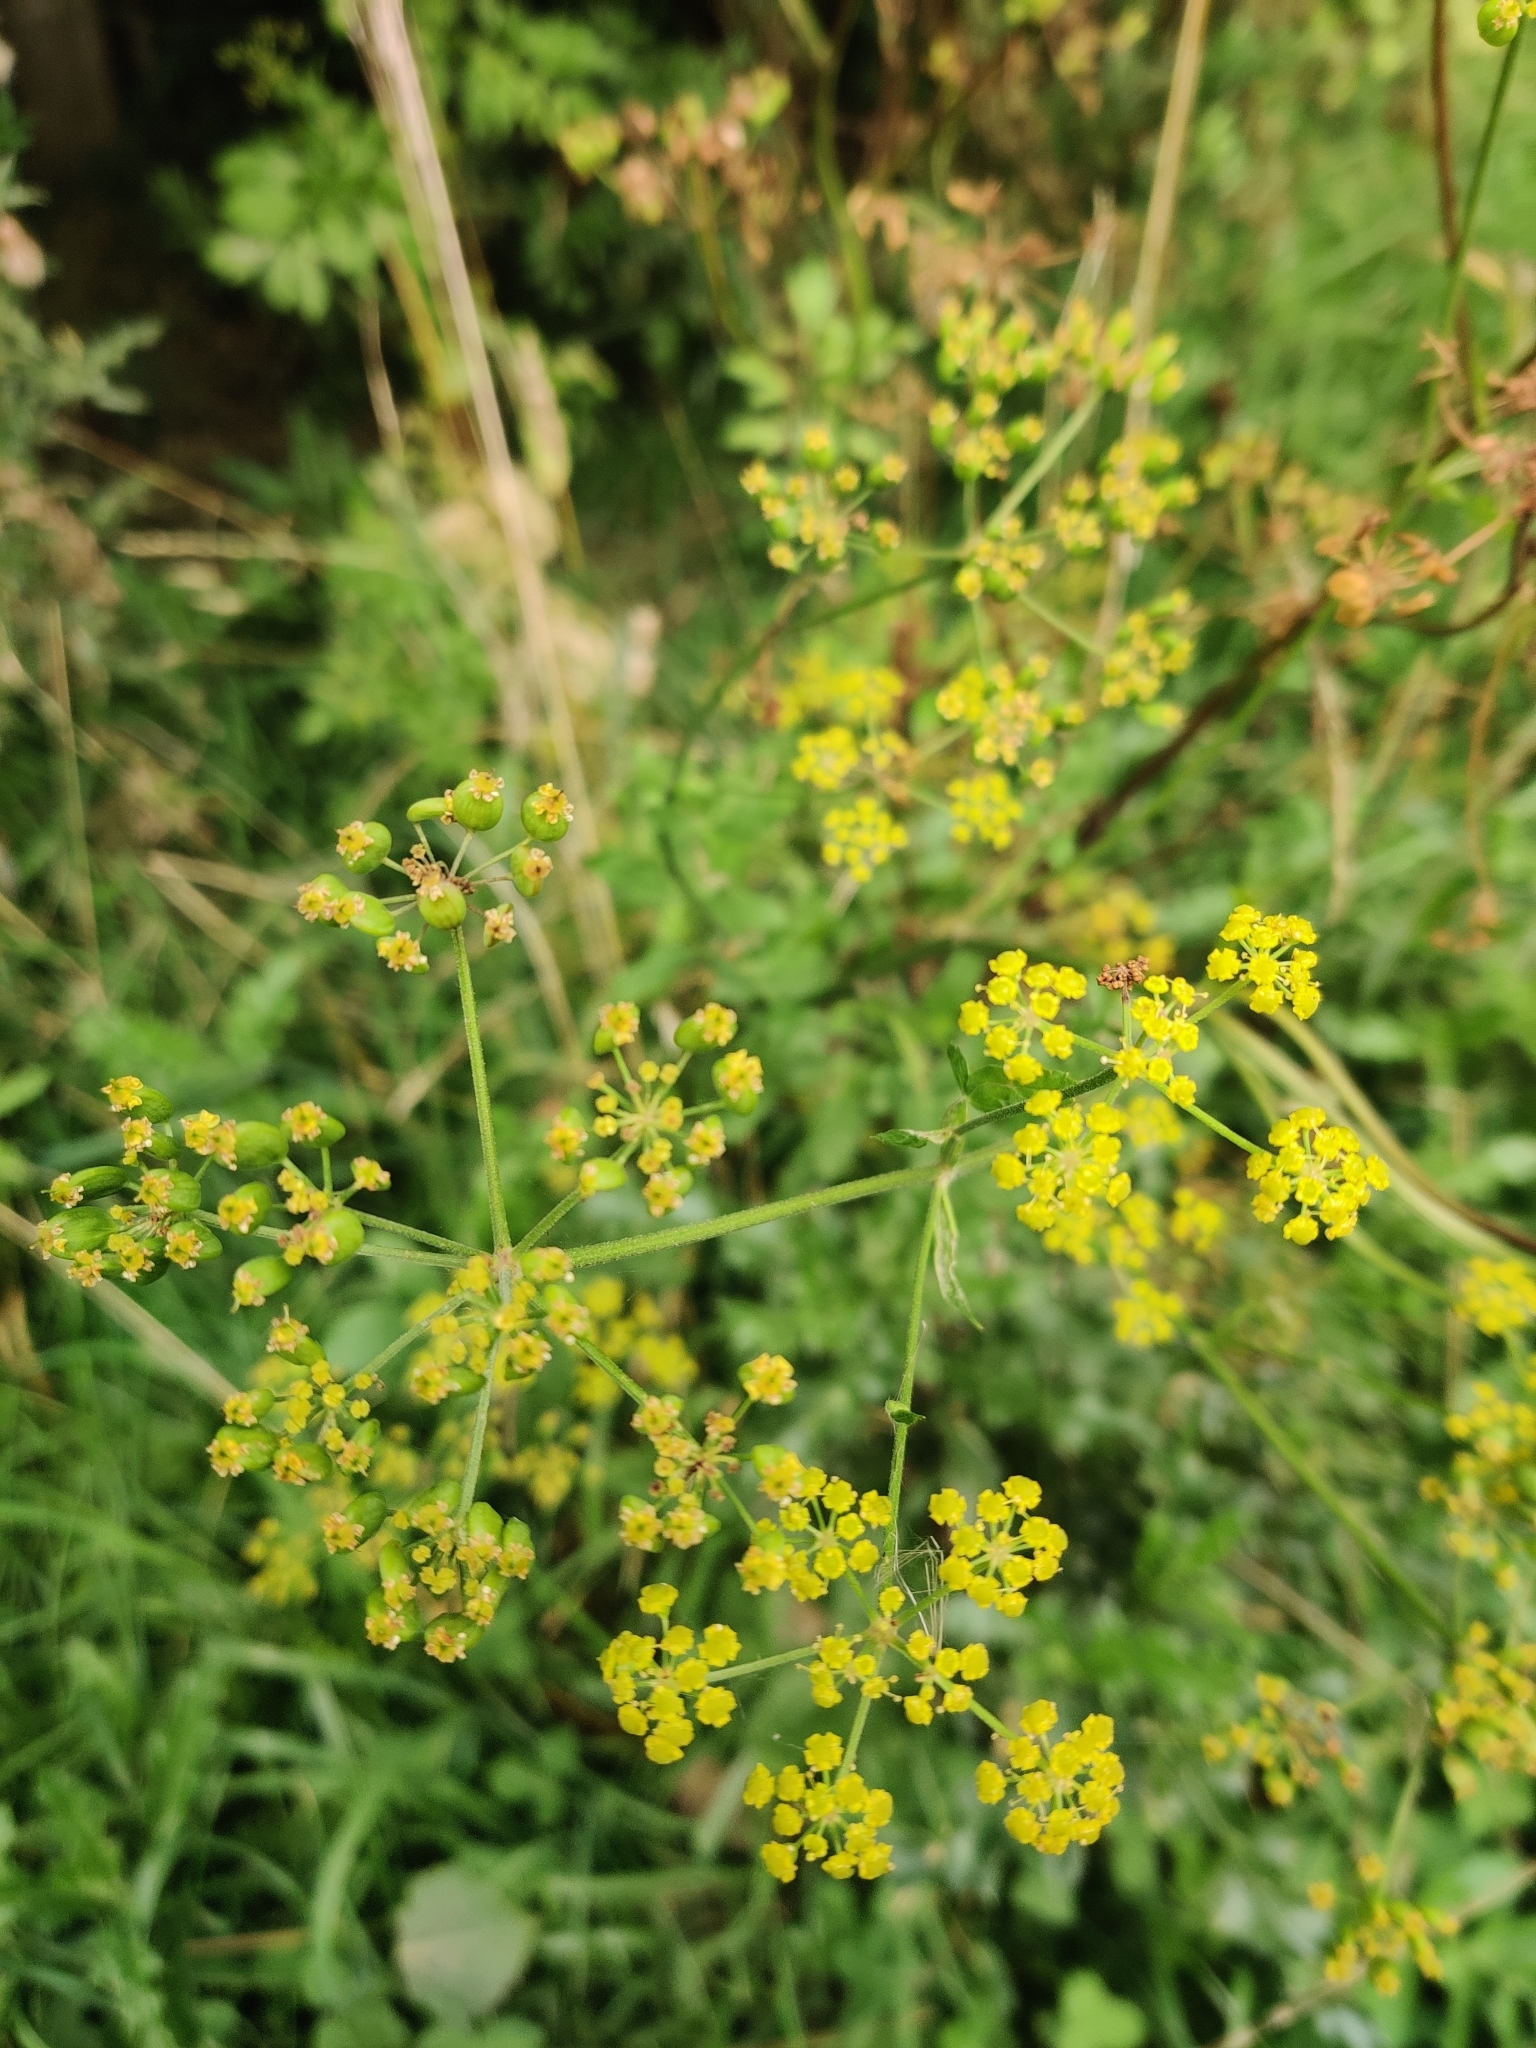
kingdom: Plantae
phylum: Tracheophyta
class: Magnoliopsida
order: Apiales
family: Apiaceae
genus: Pastinaca
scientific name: Pastinaca sativa
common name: Wild parsnip
